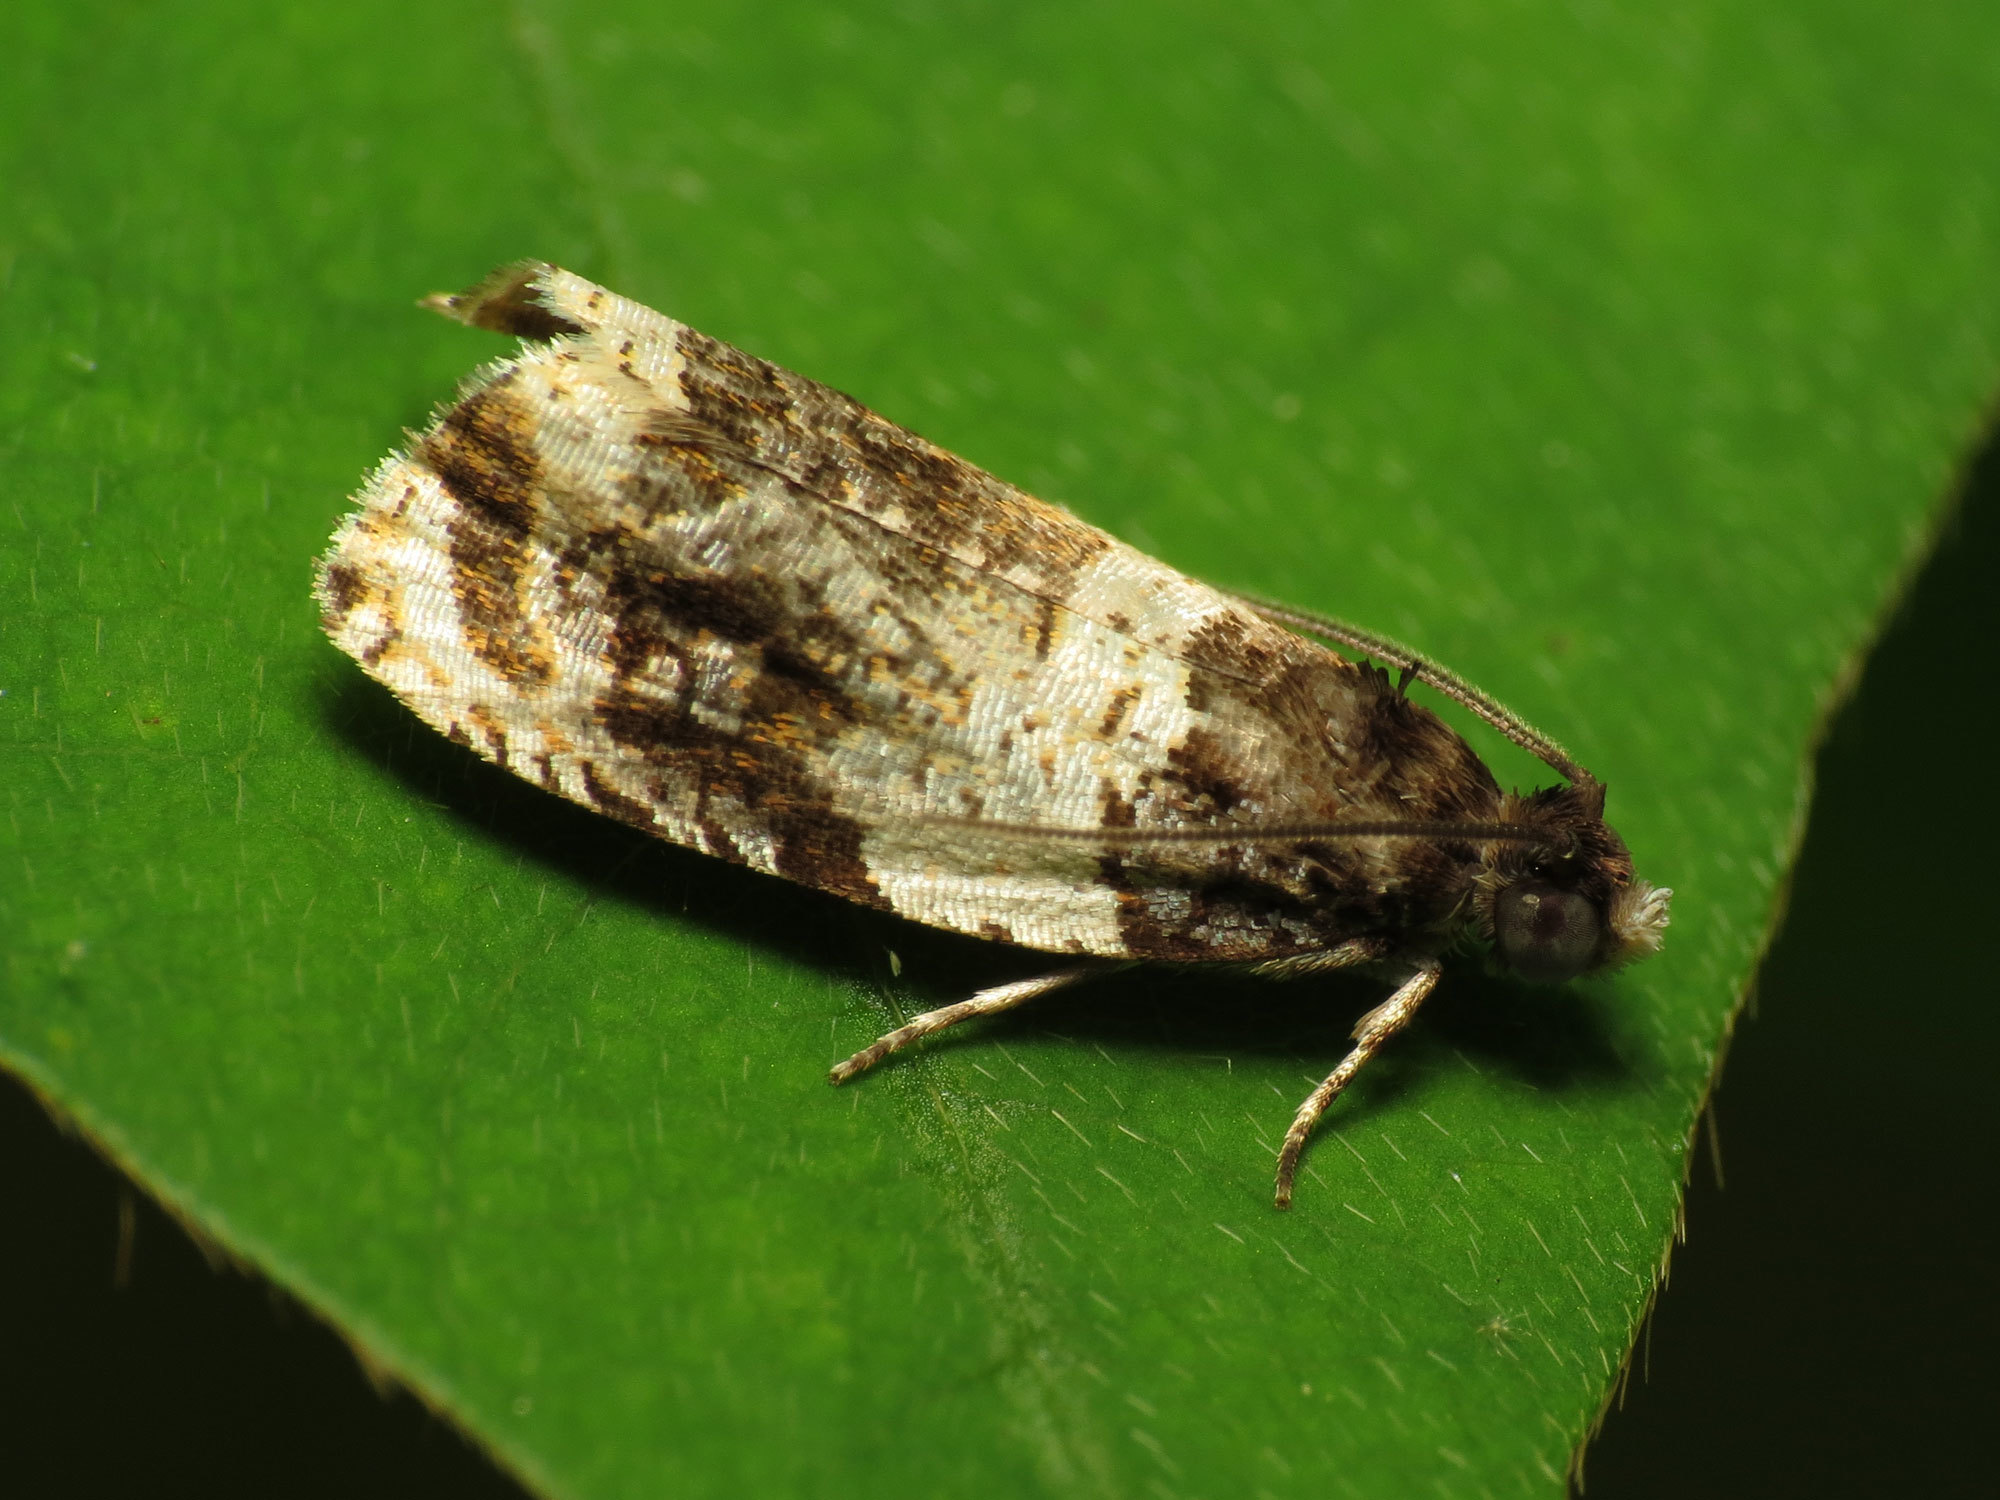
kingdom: Animalia
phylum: Arthropoda
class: Insecta
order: Lepidoptera
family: Tortricidae
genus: Olethreutes
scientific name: Olethreutes fasciatana
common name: Banded olethreutes moth
